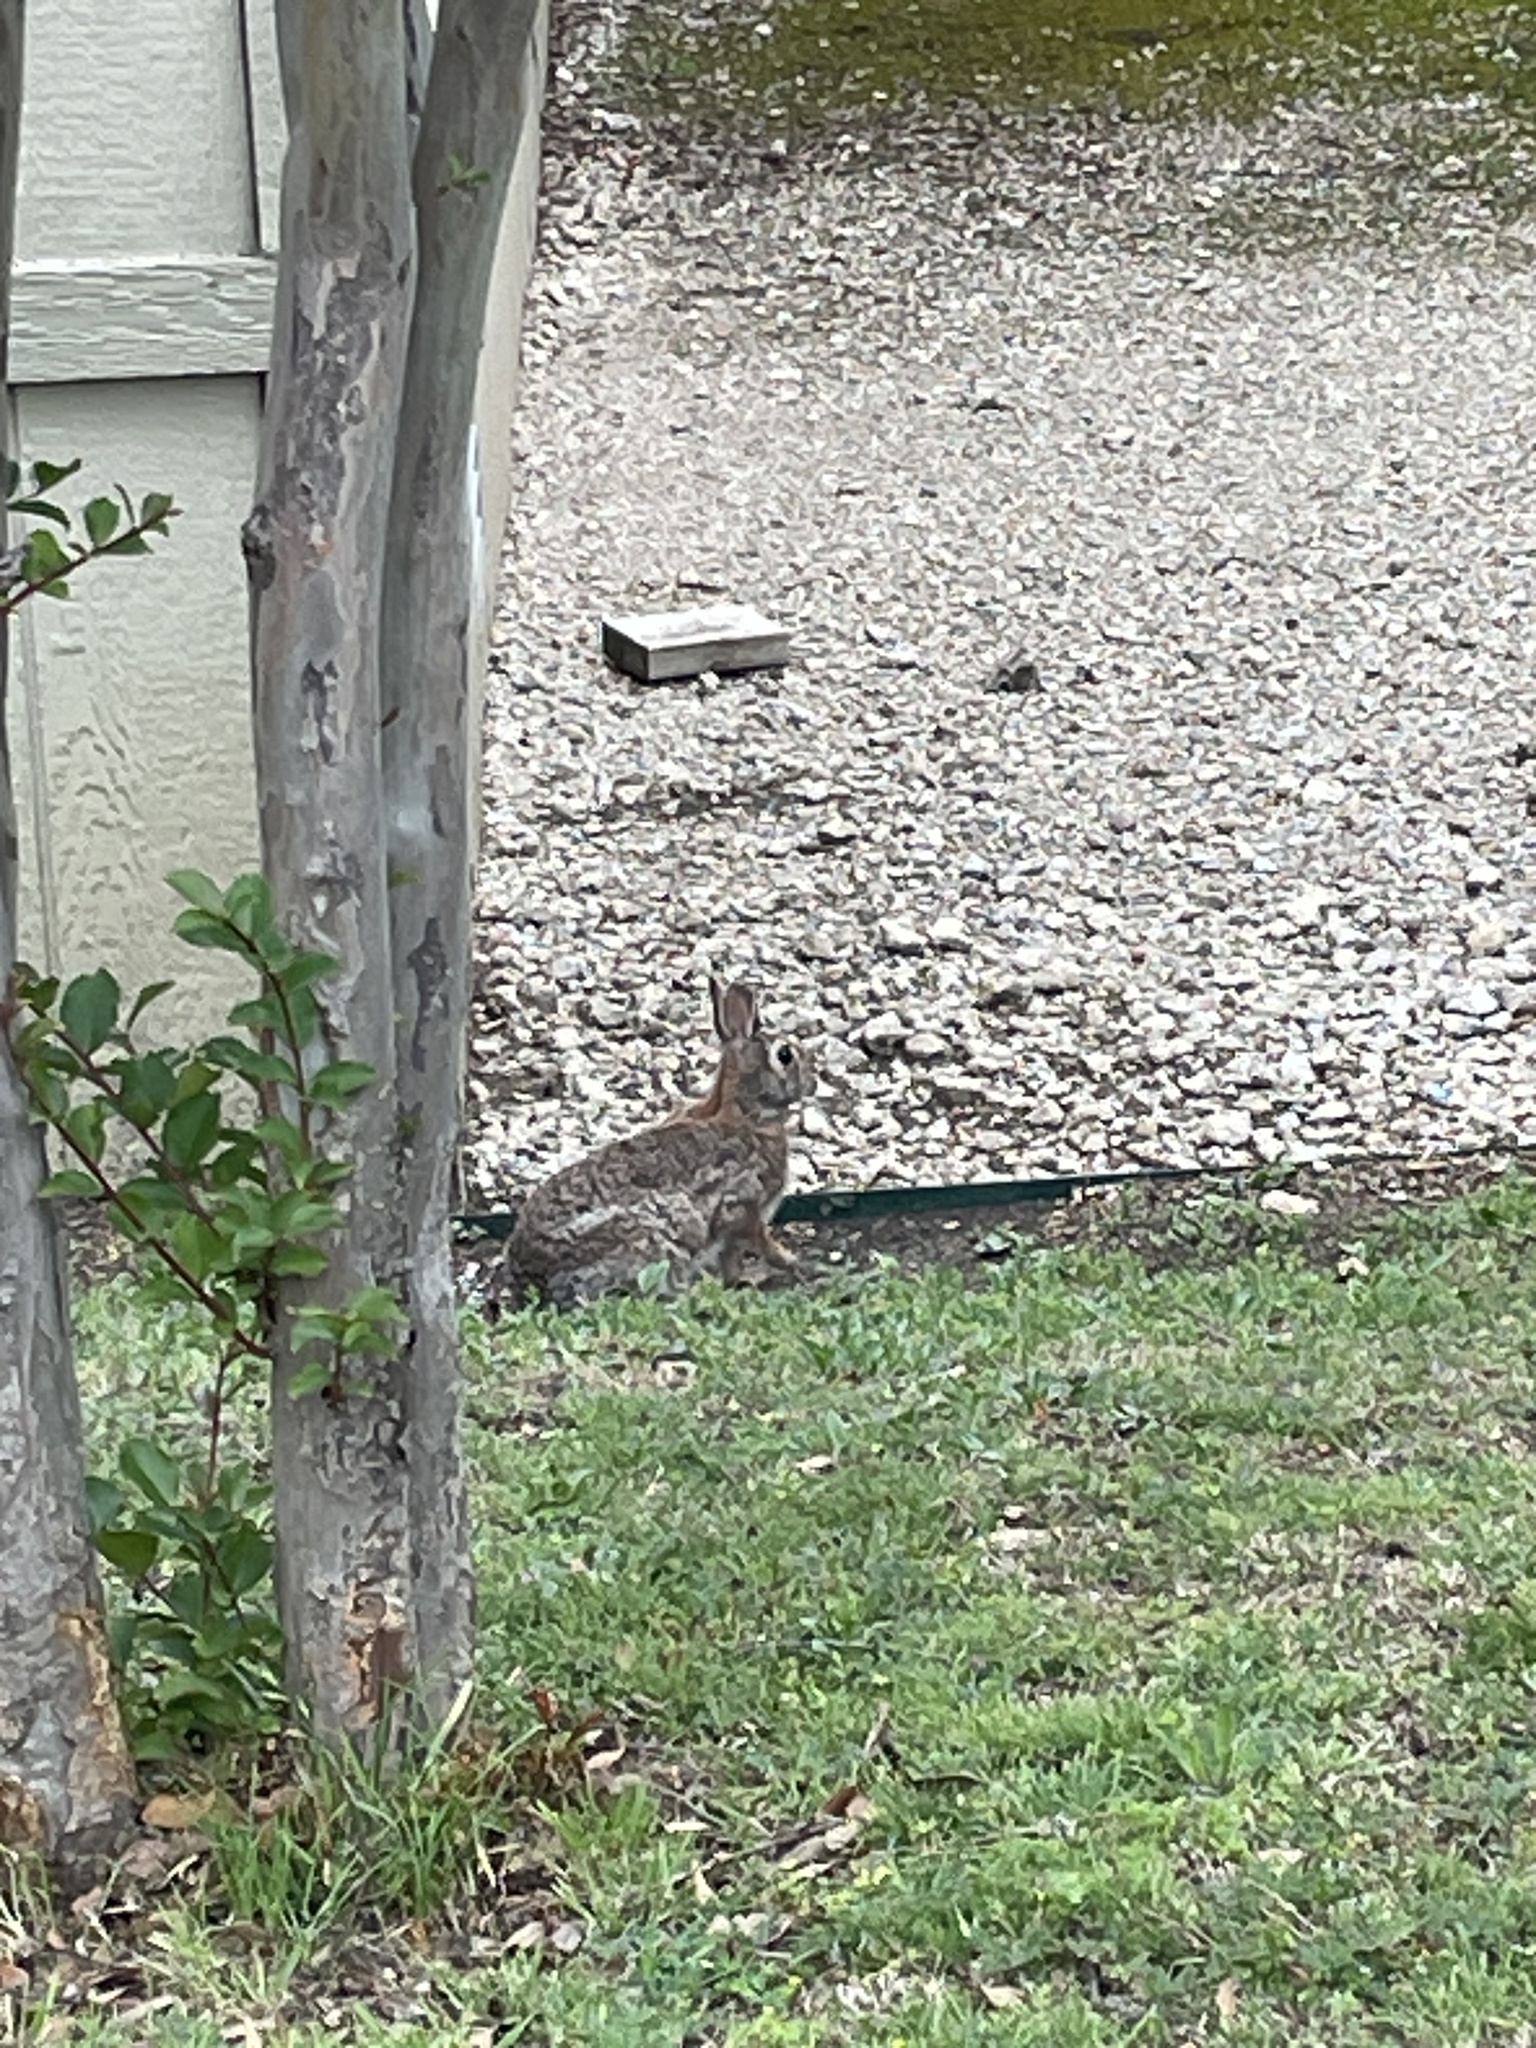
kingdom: Animalia
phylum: Chordata
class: Mammalia
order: Lagomorpha
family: Leporidae
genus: Sylvilagus
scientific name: Sylvilagus floridanus
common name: Eastern cottontail
